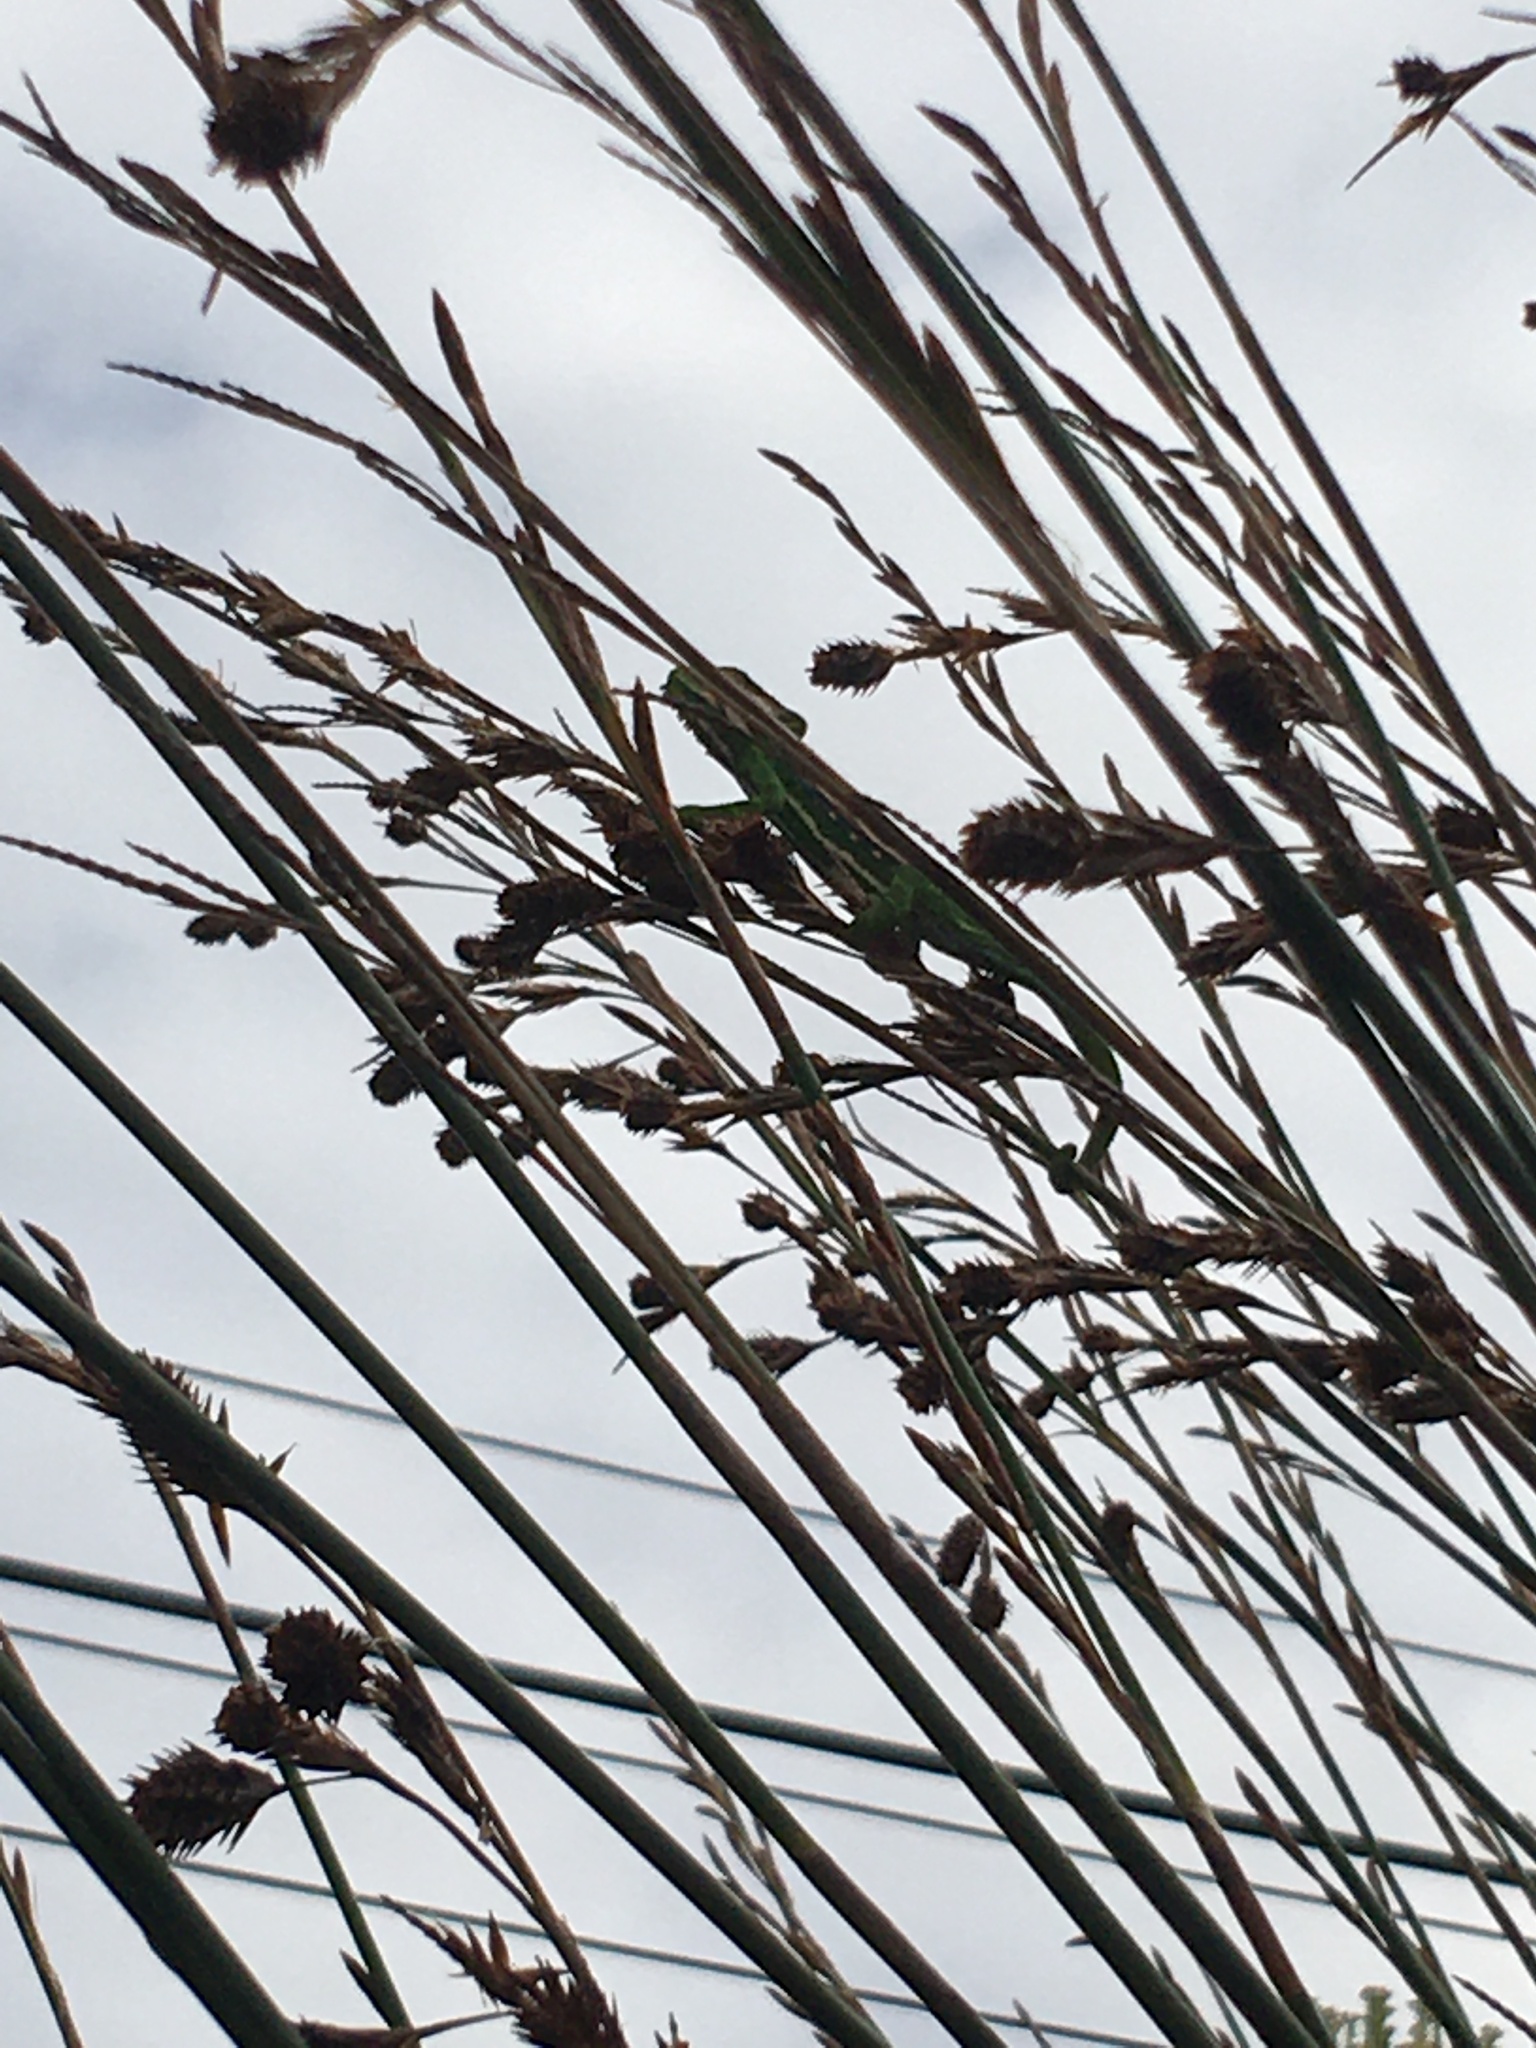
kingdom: Animalia
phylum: Chordata
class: Squamata
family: Chamaeleonidae
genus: Bradypodion
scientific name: Bradypodion pumilum
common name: Cape dwarf chameleon
